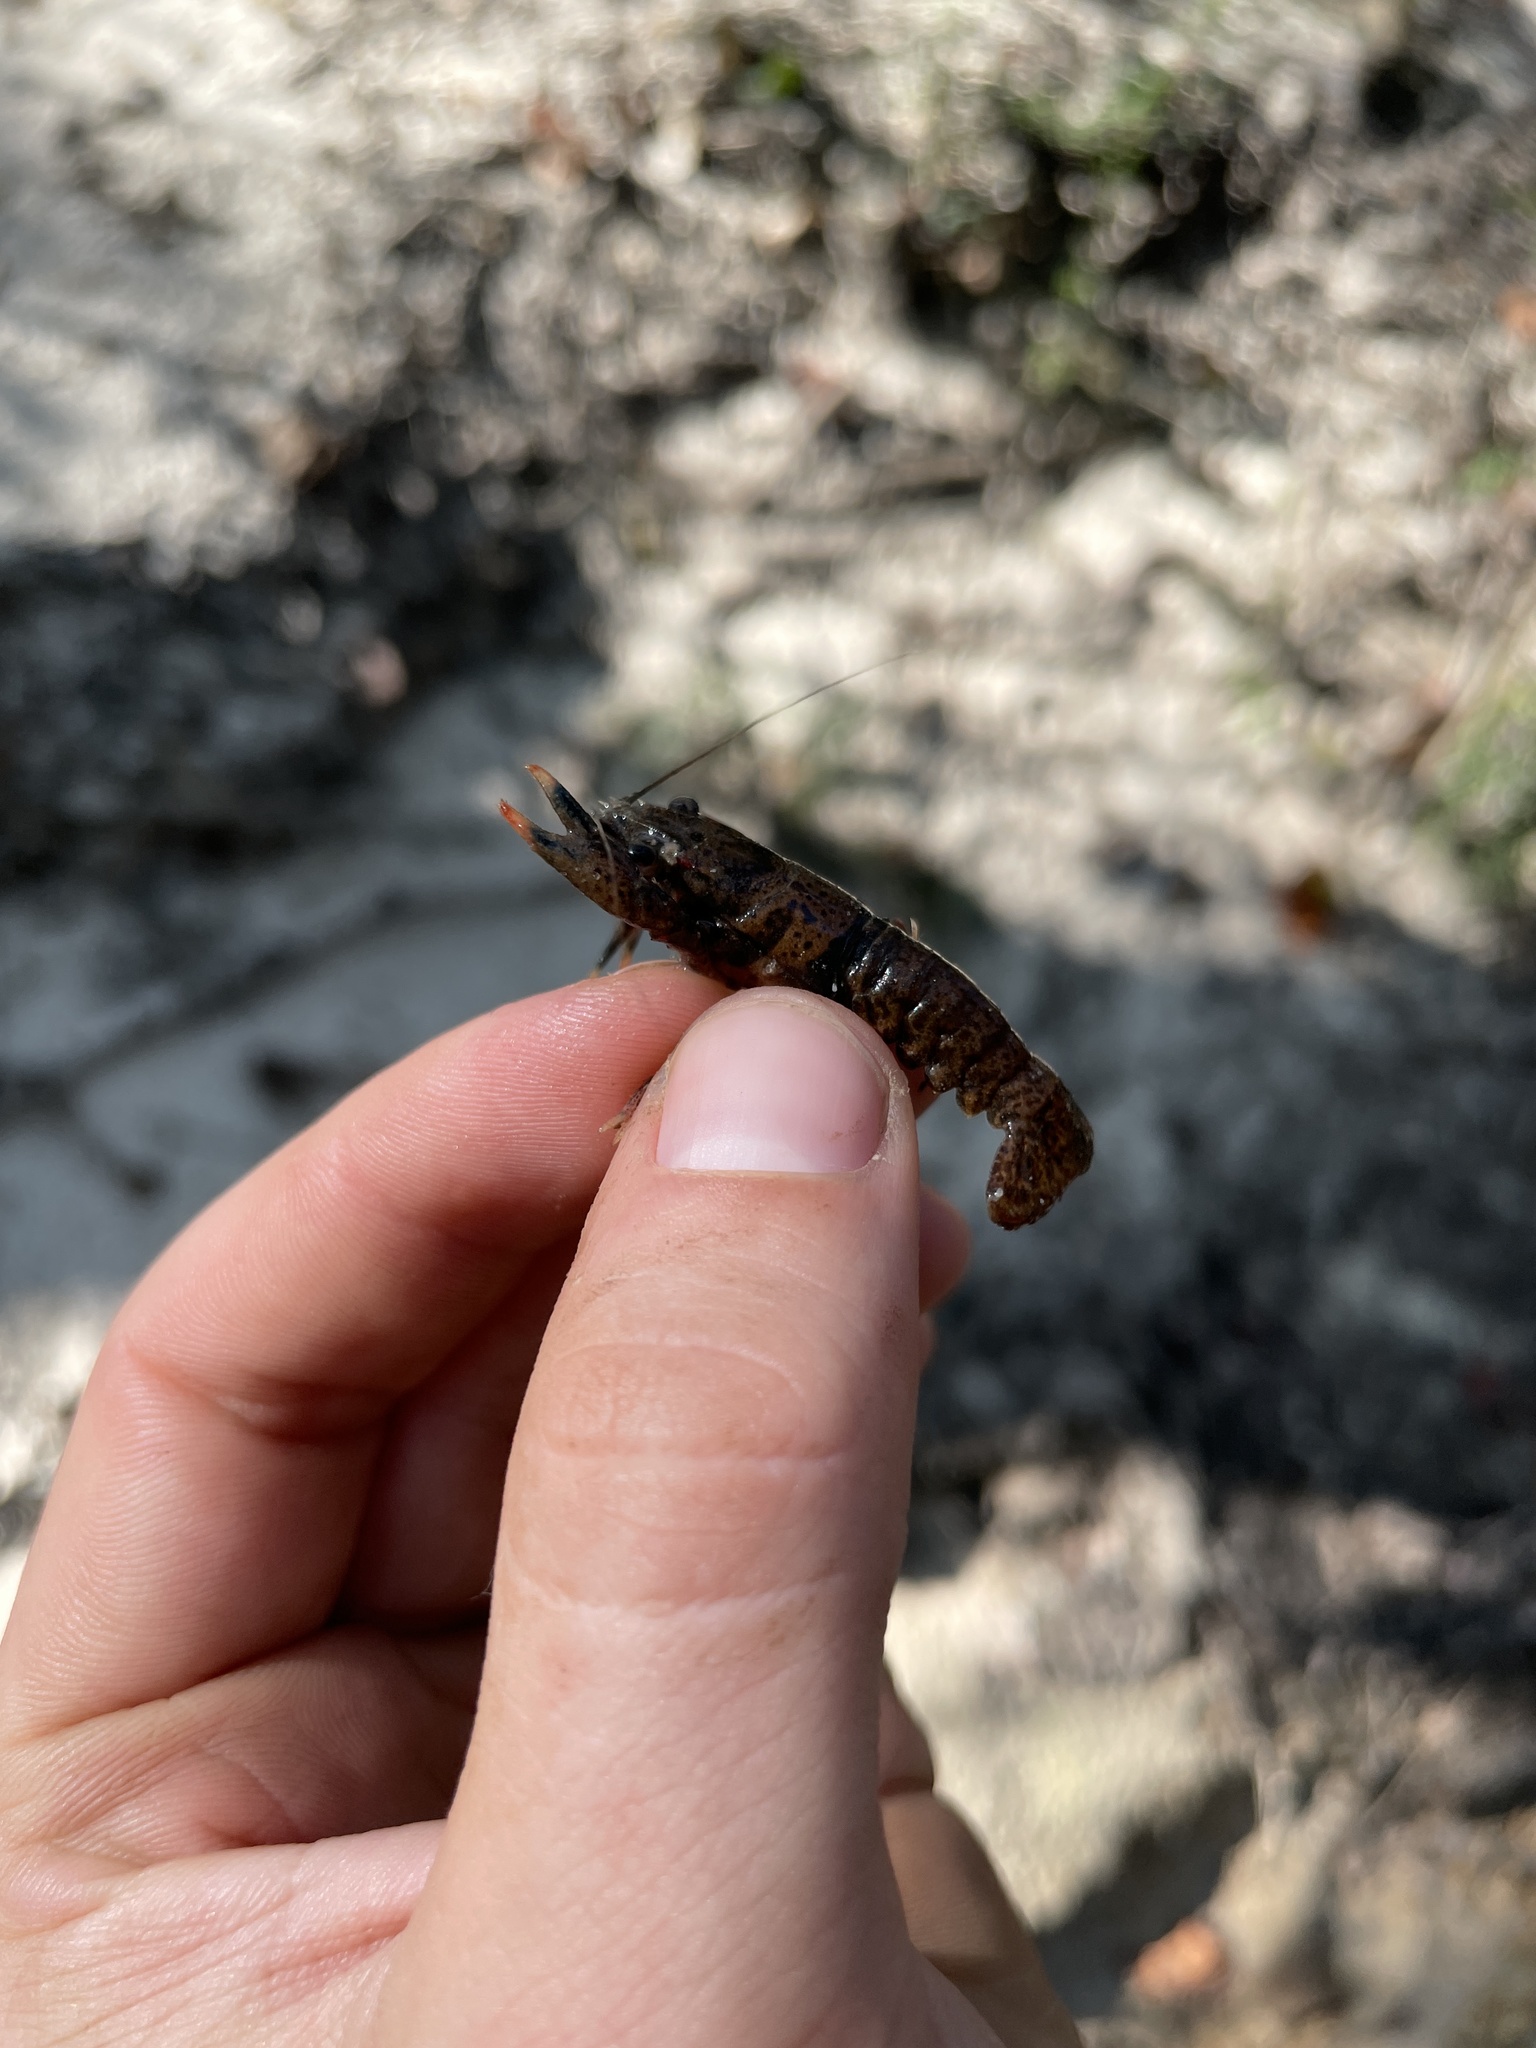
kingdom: Animalia
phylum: Arthropoda
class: Malacostraca
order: Decapoda
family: Cambaridae
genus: Faxonius
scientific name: Faxonius hobbsi
